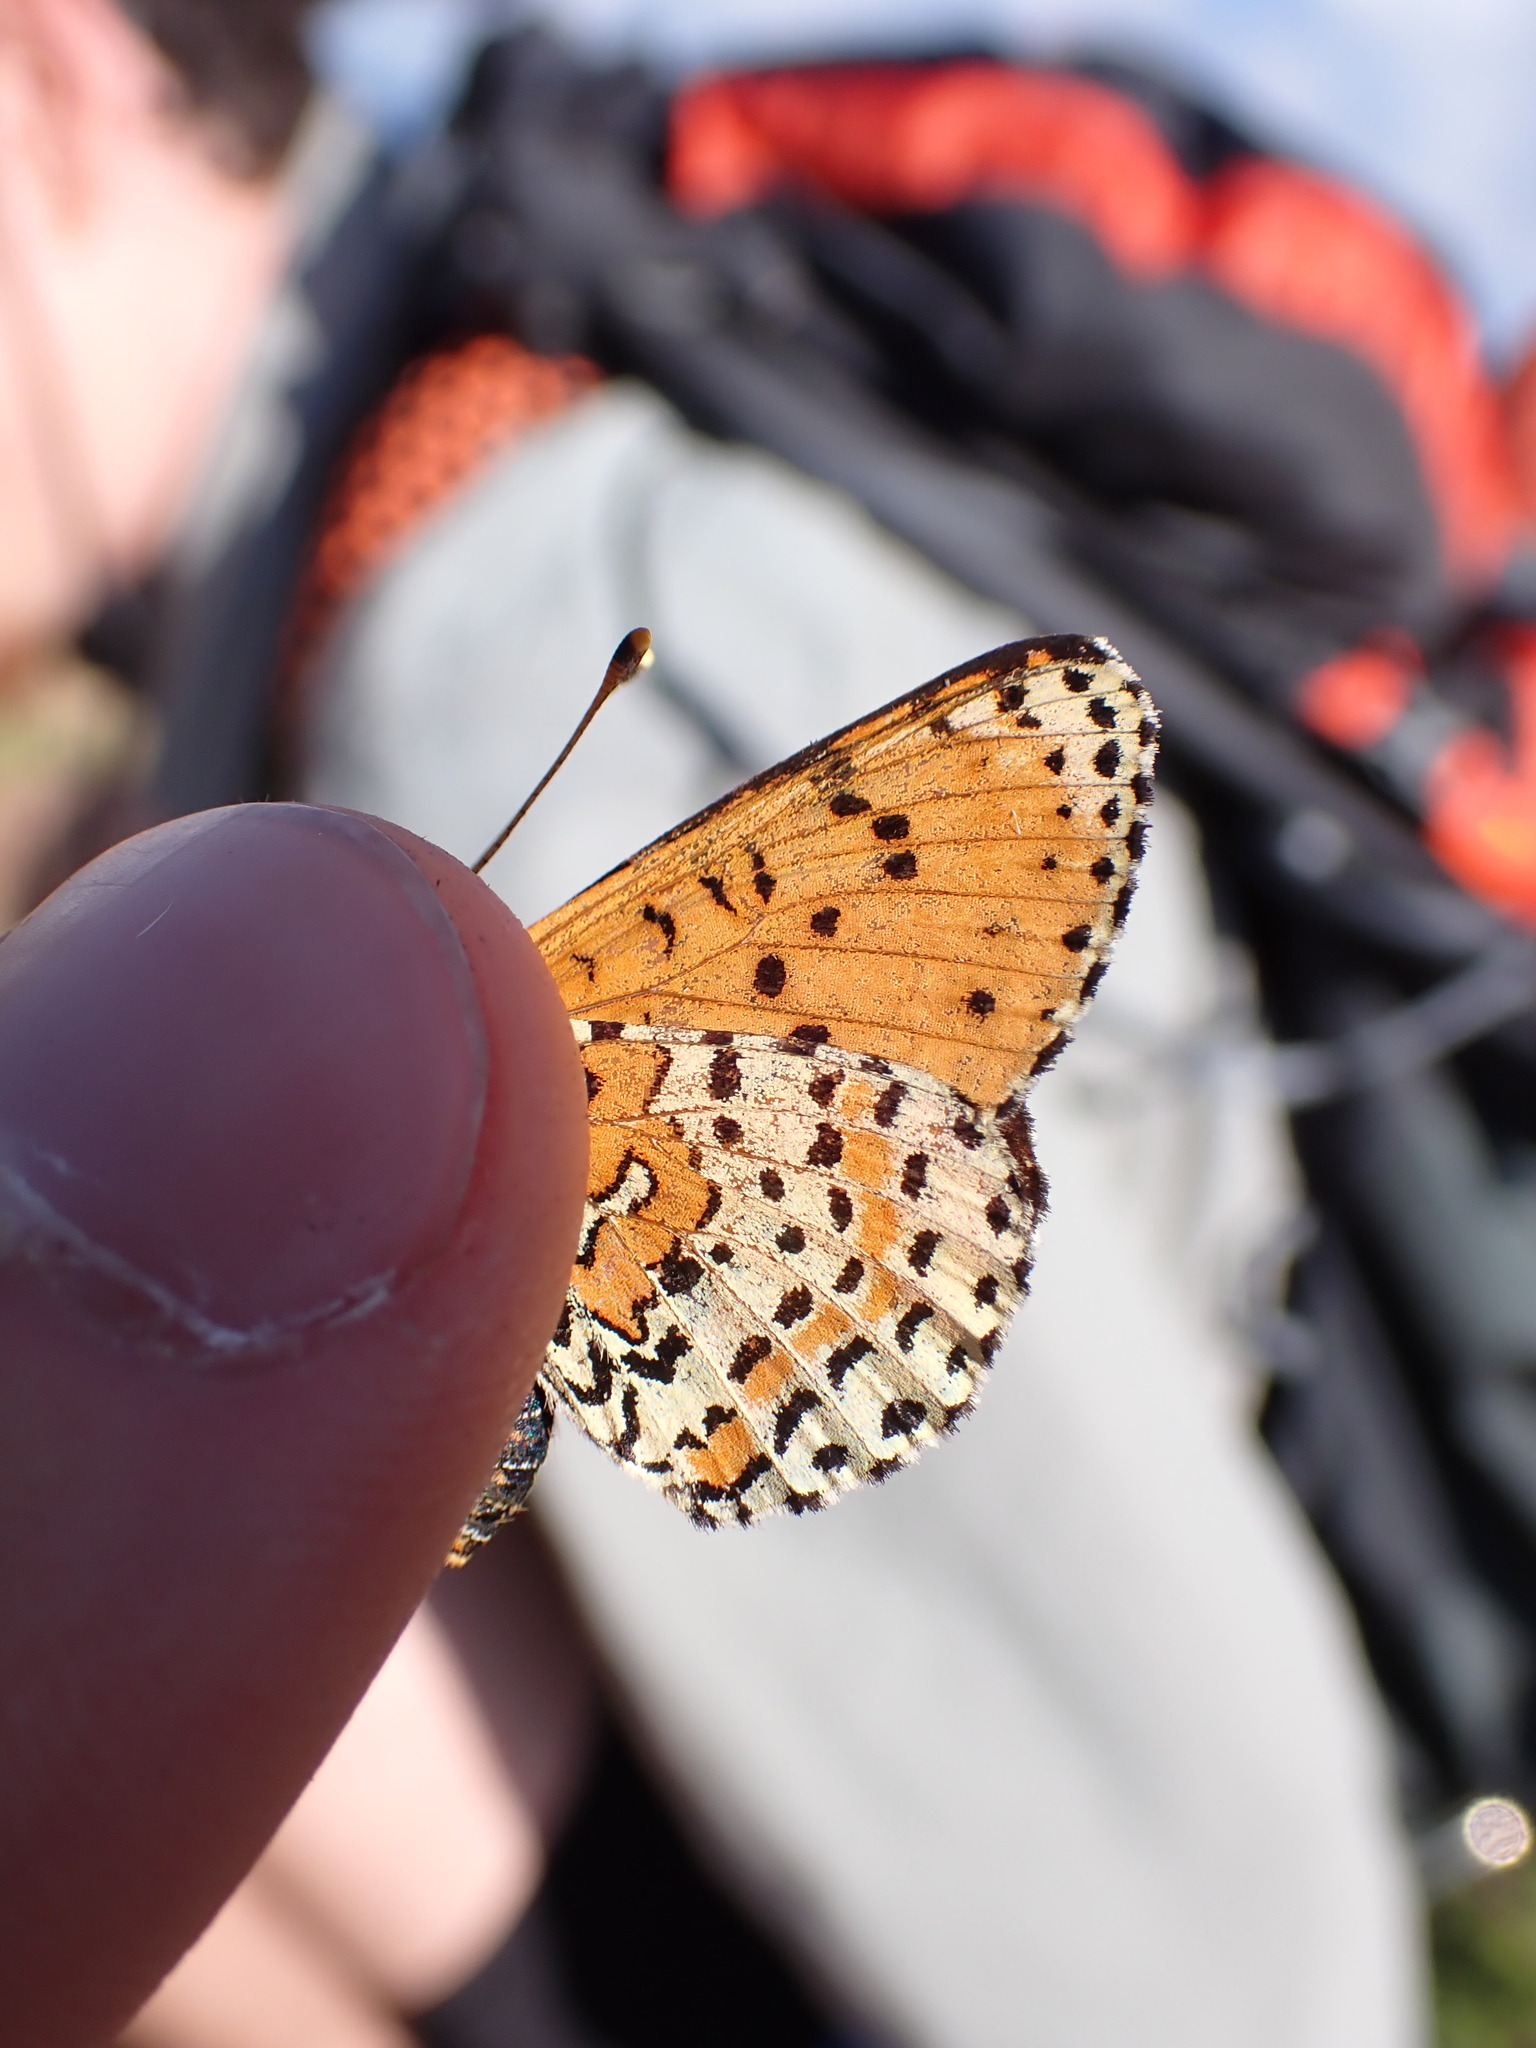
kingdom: Animalia
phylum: Arthropoda
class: Insecta
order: Lepidoptera
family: Nymphalidae
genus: Melitaea
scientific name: Melitaea didyma
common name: Spotted fritillary
